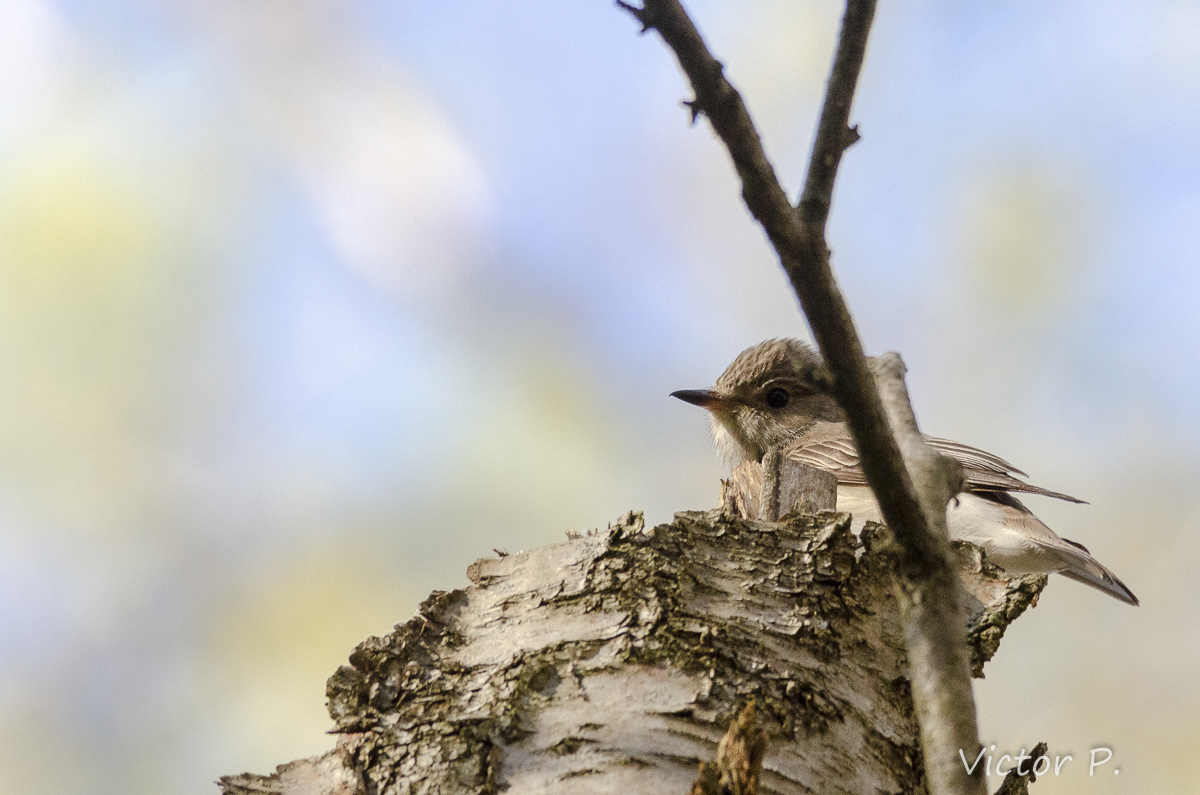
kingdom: Animalia
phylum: Chordata
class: Aves
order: Passeriformes
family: Muscicapidae
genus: Muscicapa
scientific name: Muscicapa striata
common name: Spotted flycatcher
